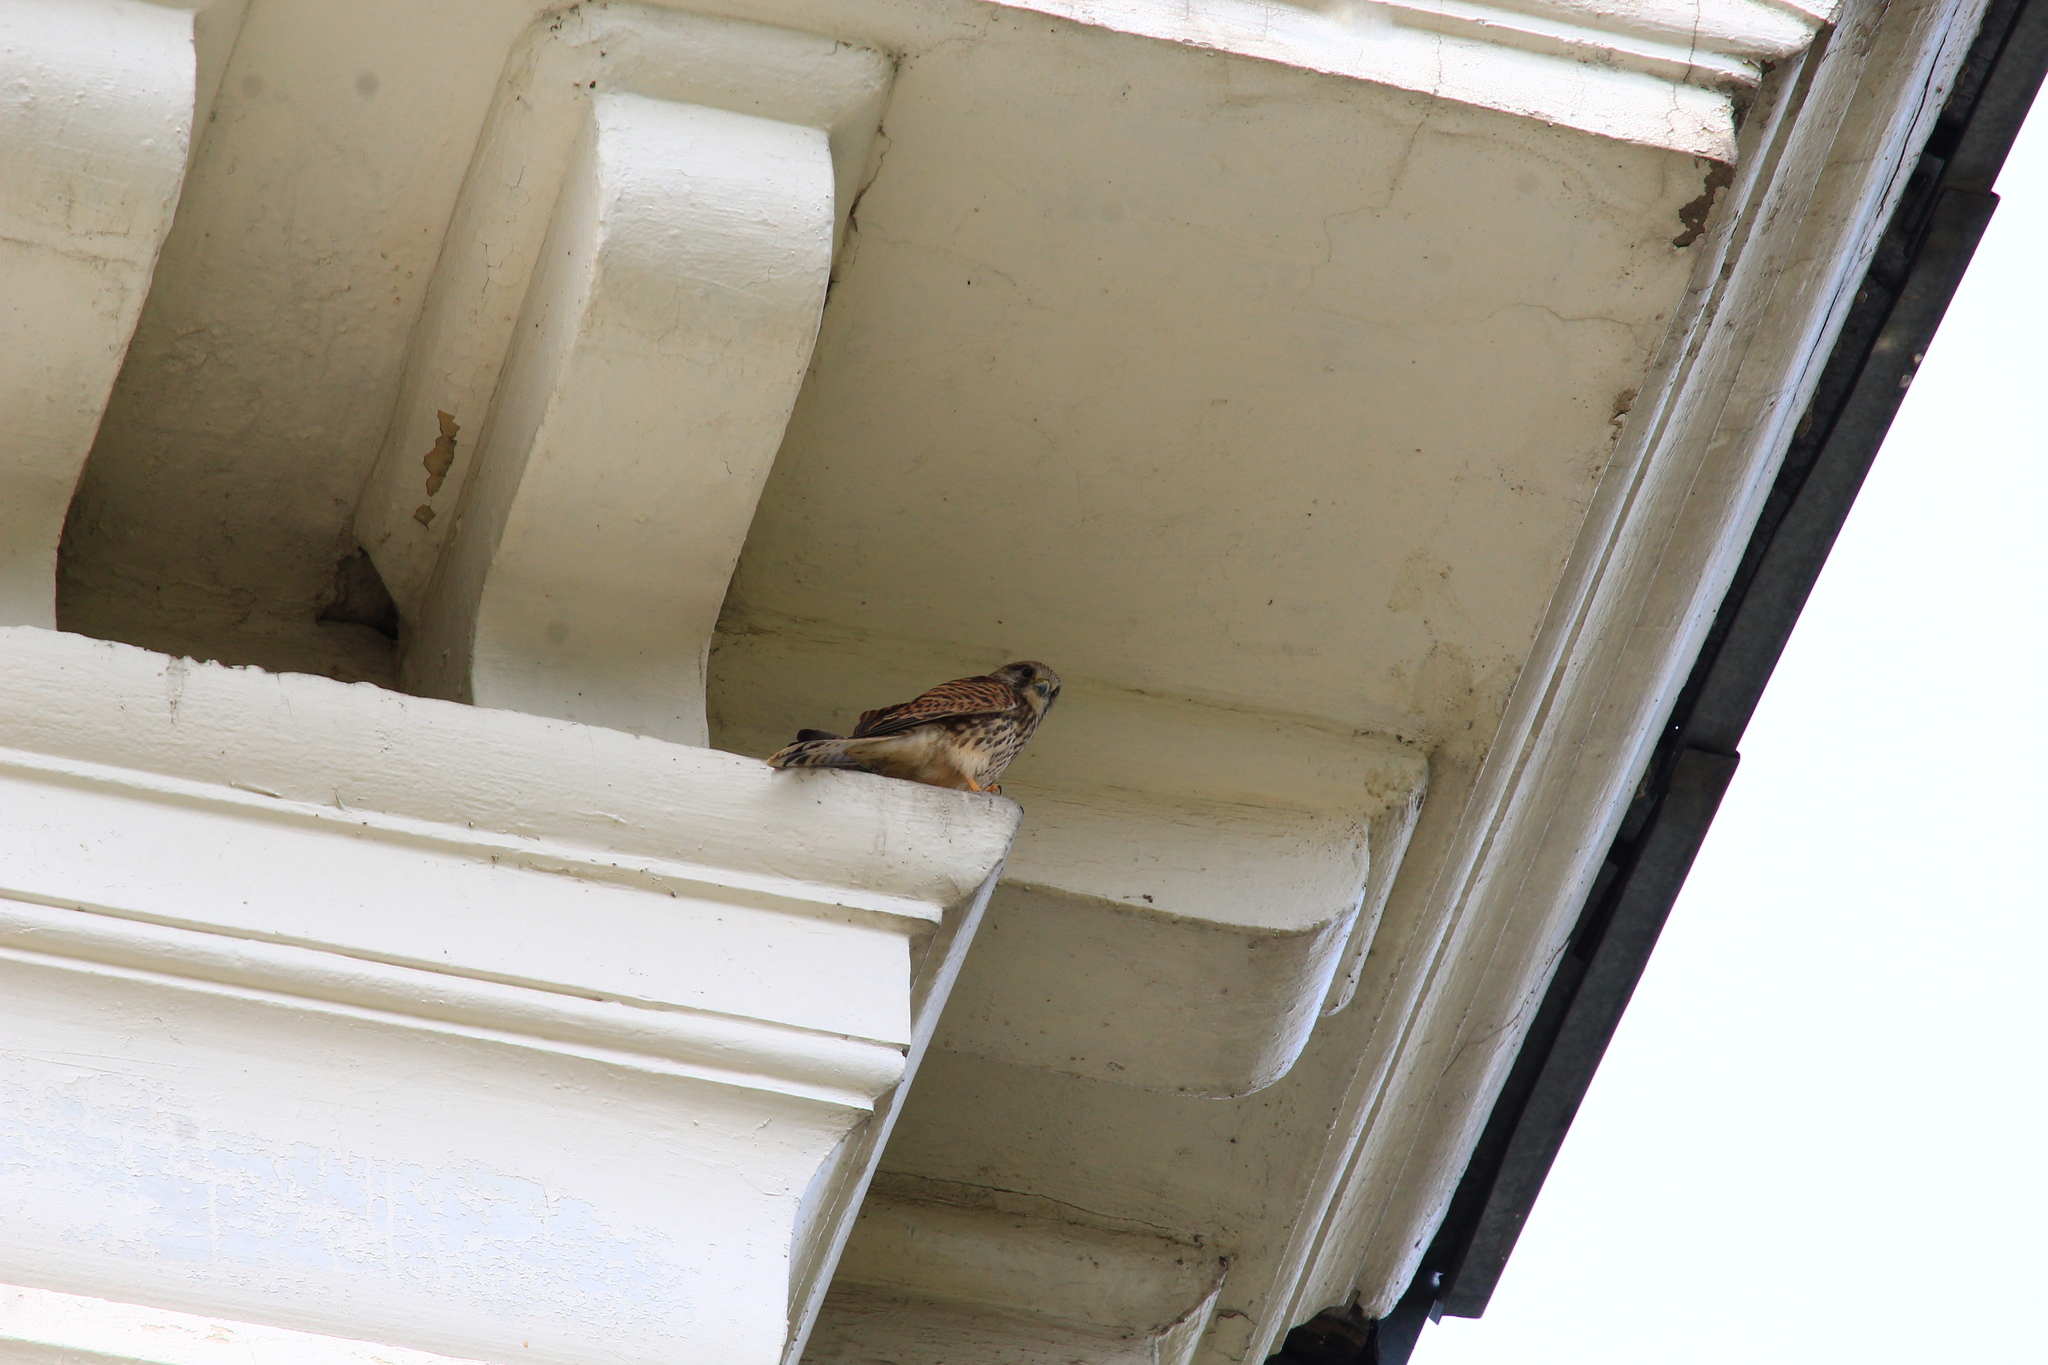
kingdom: Animalia
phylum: Chordata
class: Aves
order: Falconiformes
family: Falconidae
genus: Falco
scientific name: Falco tinnunculus
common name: Common kestrel
